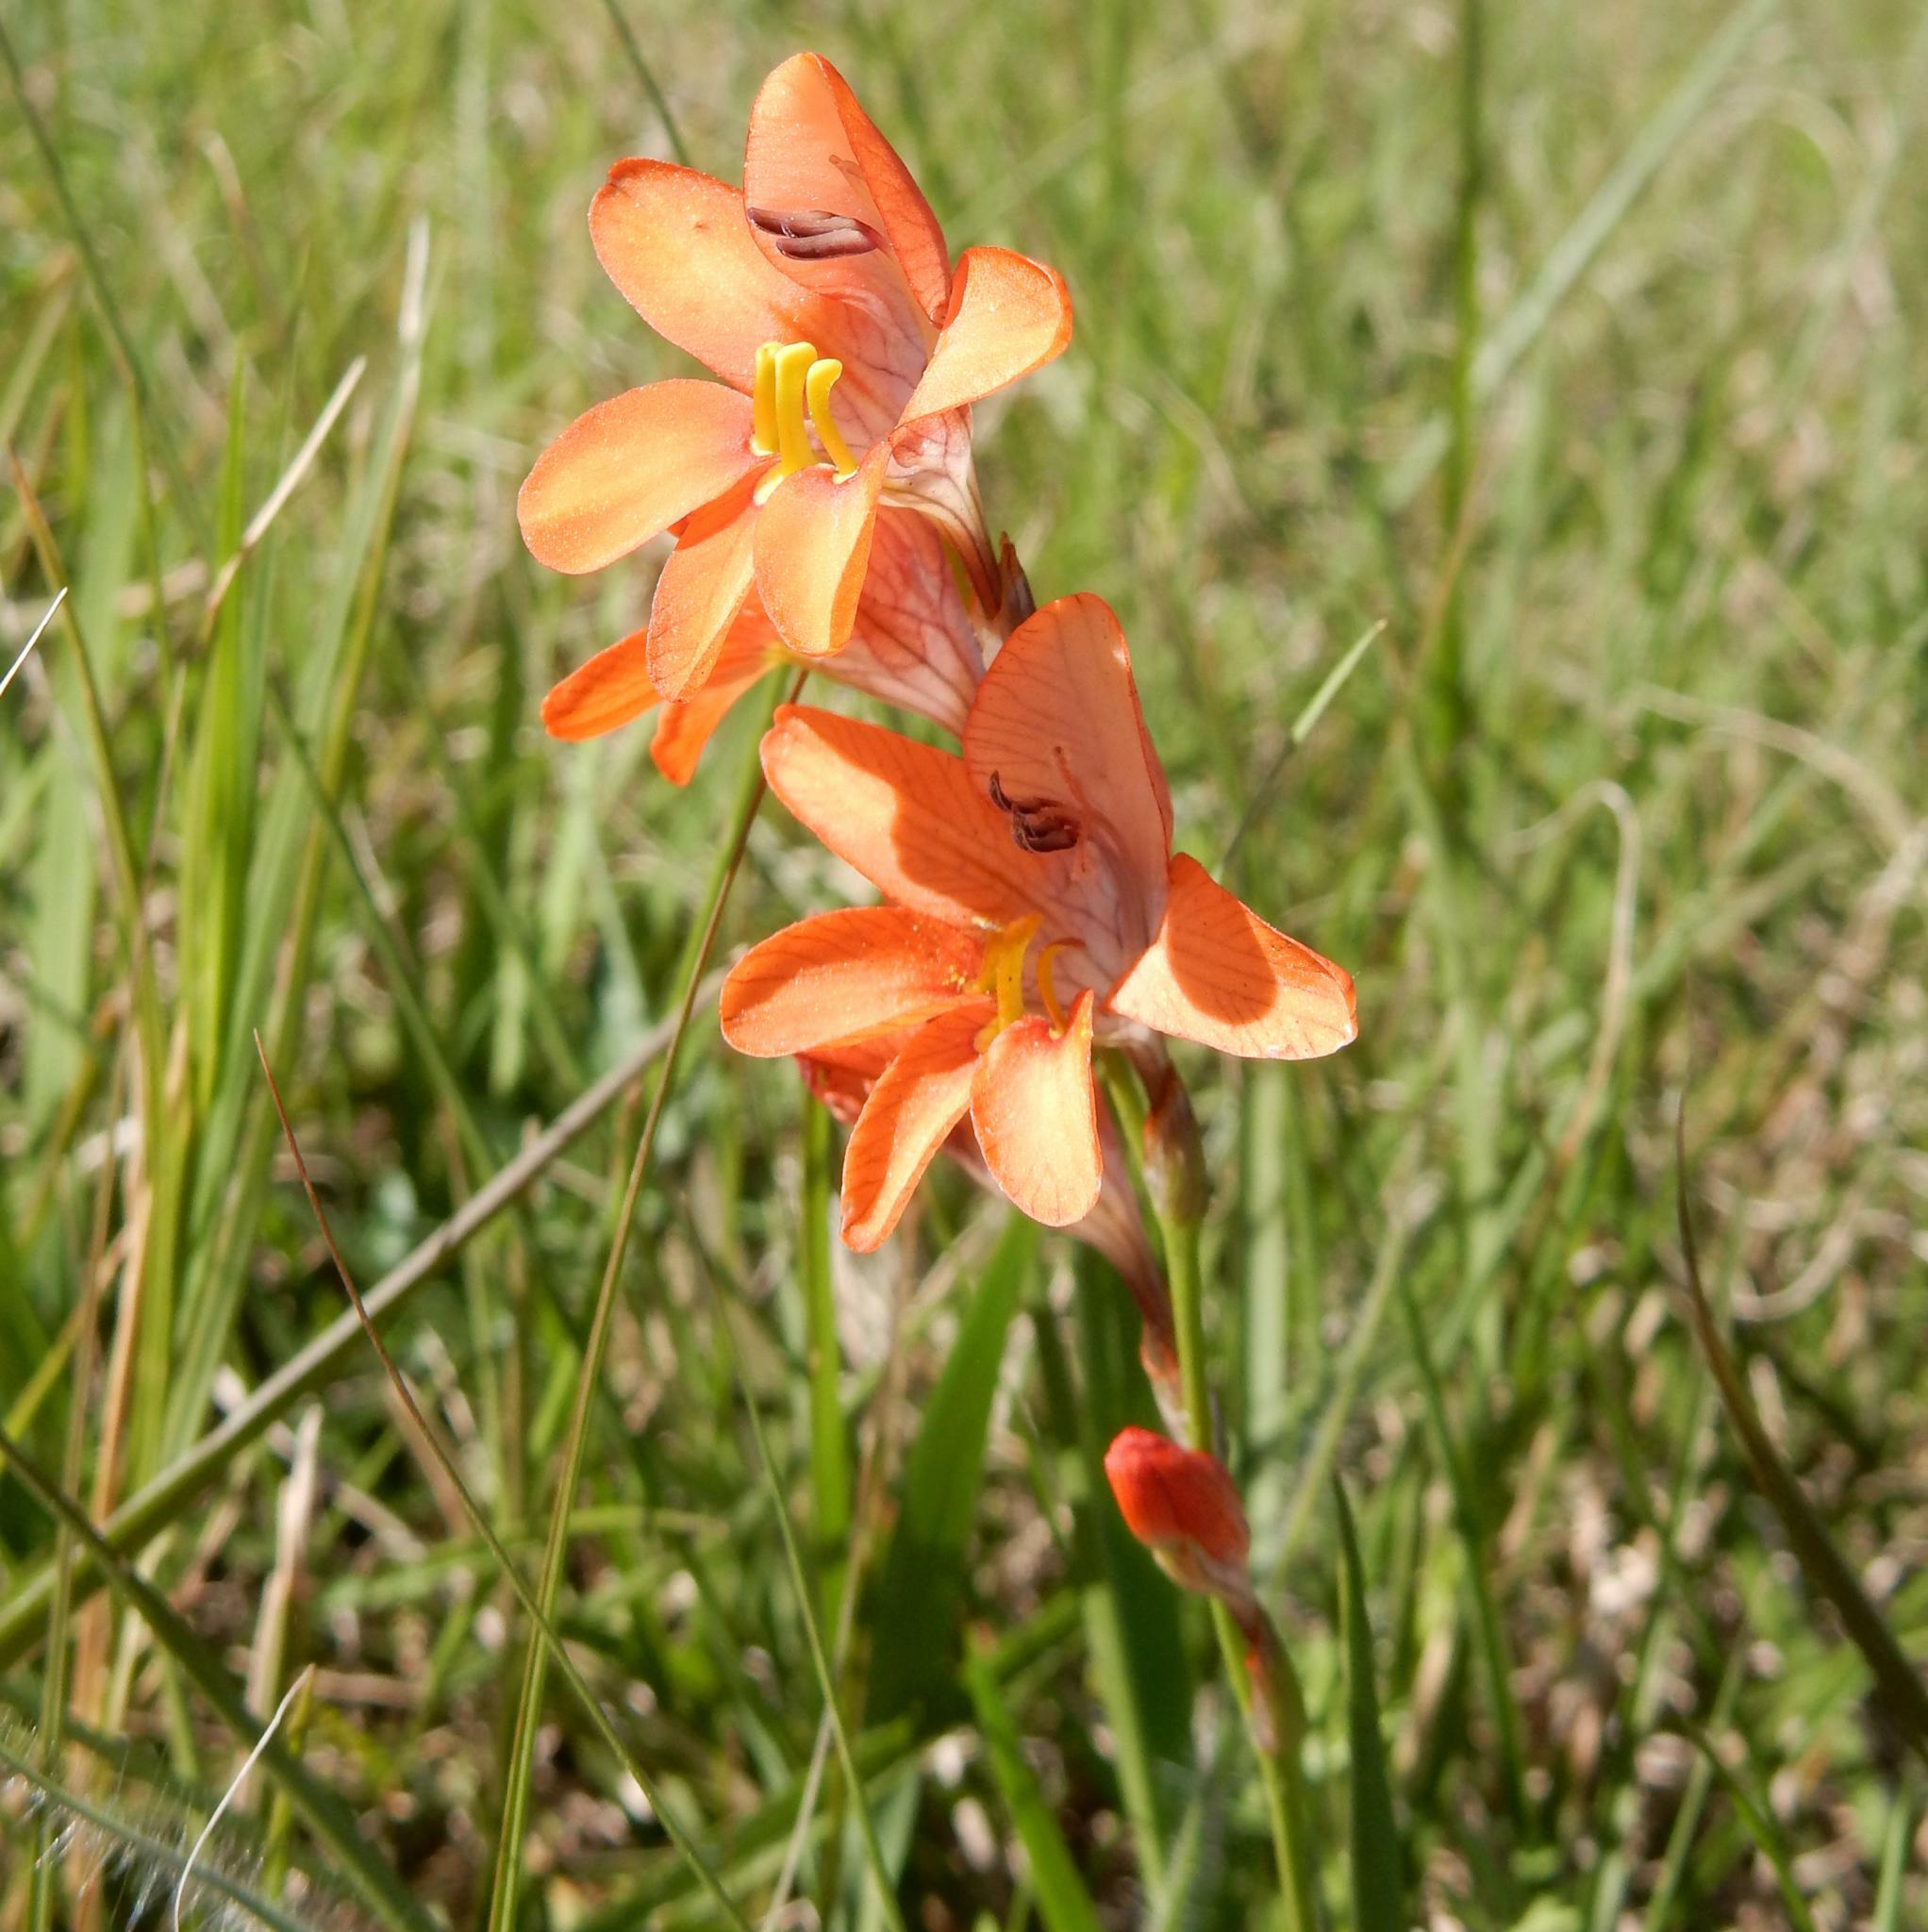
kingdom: Plantae
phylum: Tracheophyta
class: Liliopsida
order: Asparagales
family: Iridaceae
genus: Tritonia
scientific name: Tritonia laxifolia
